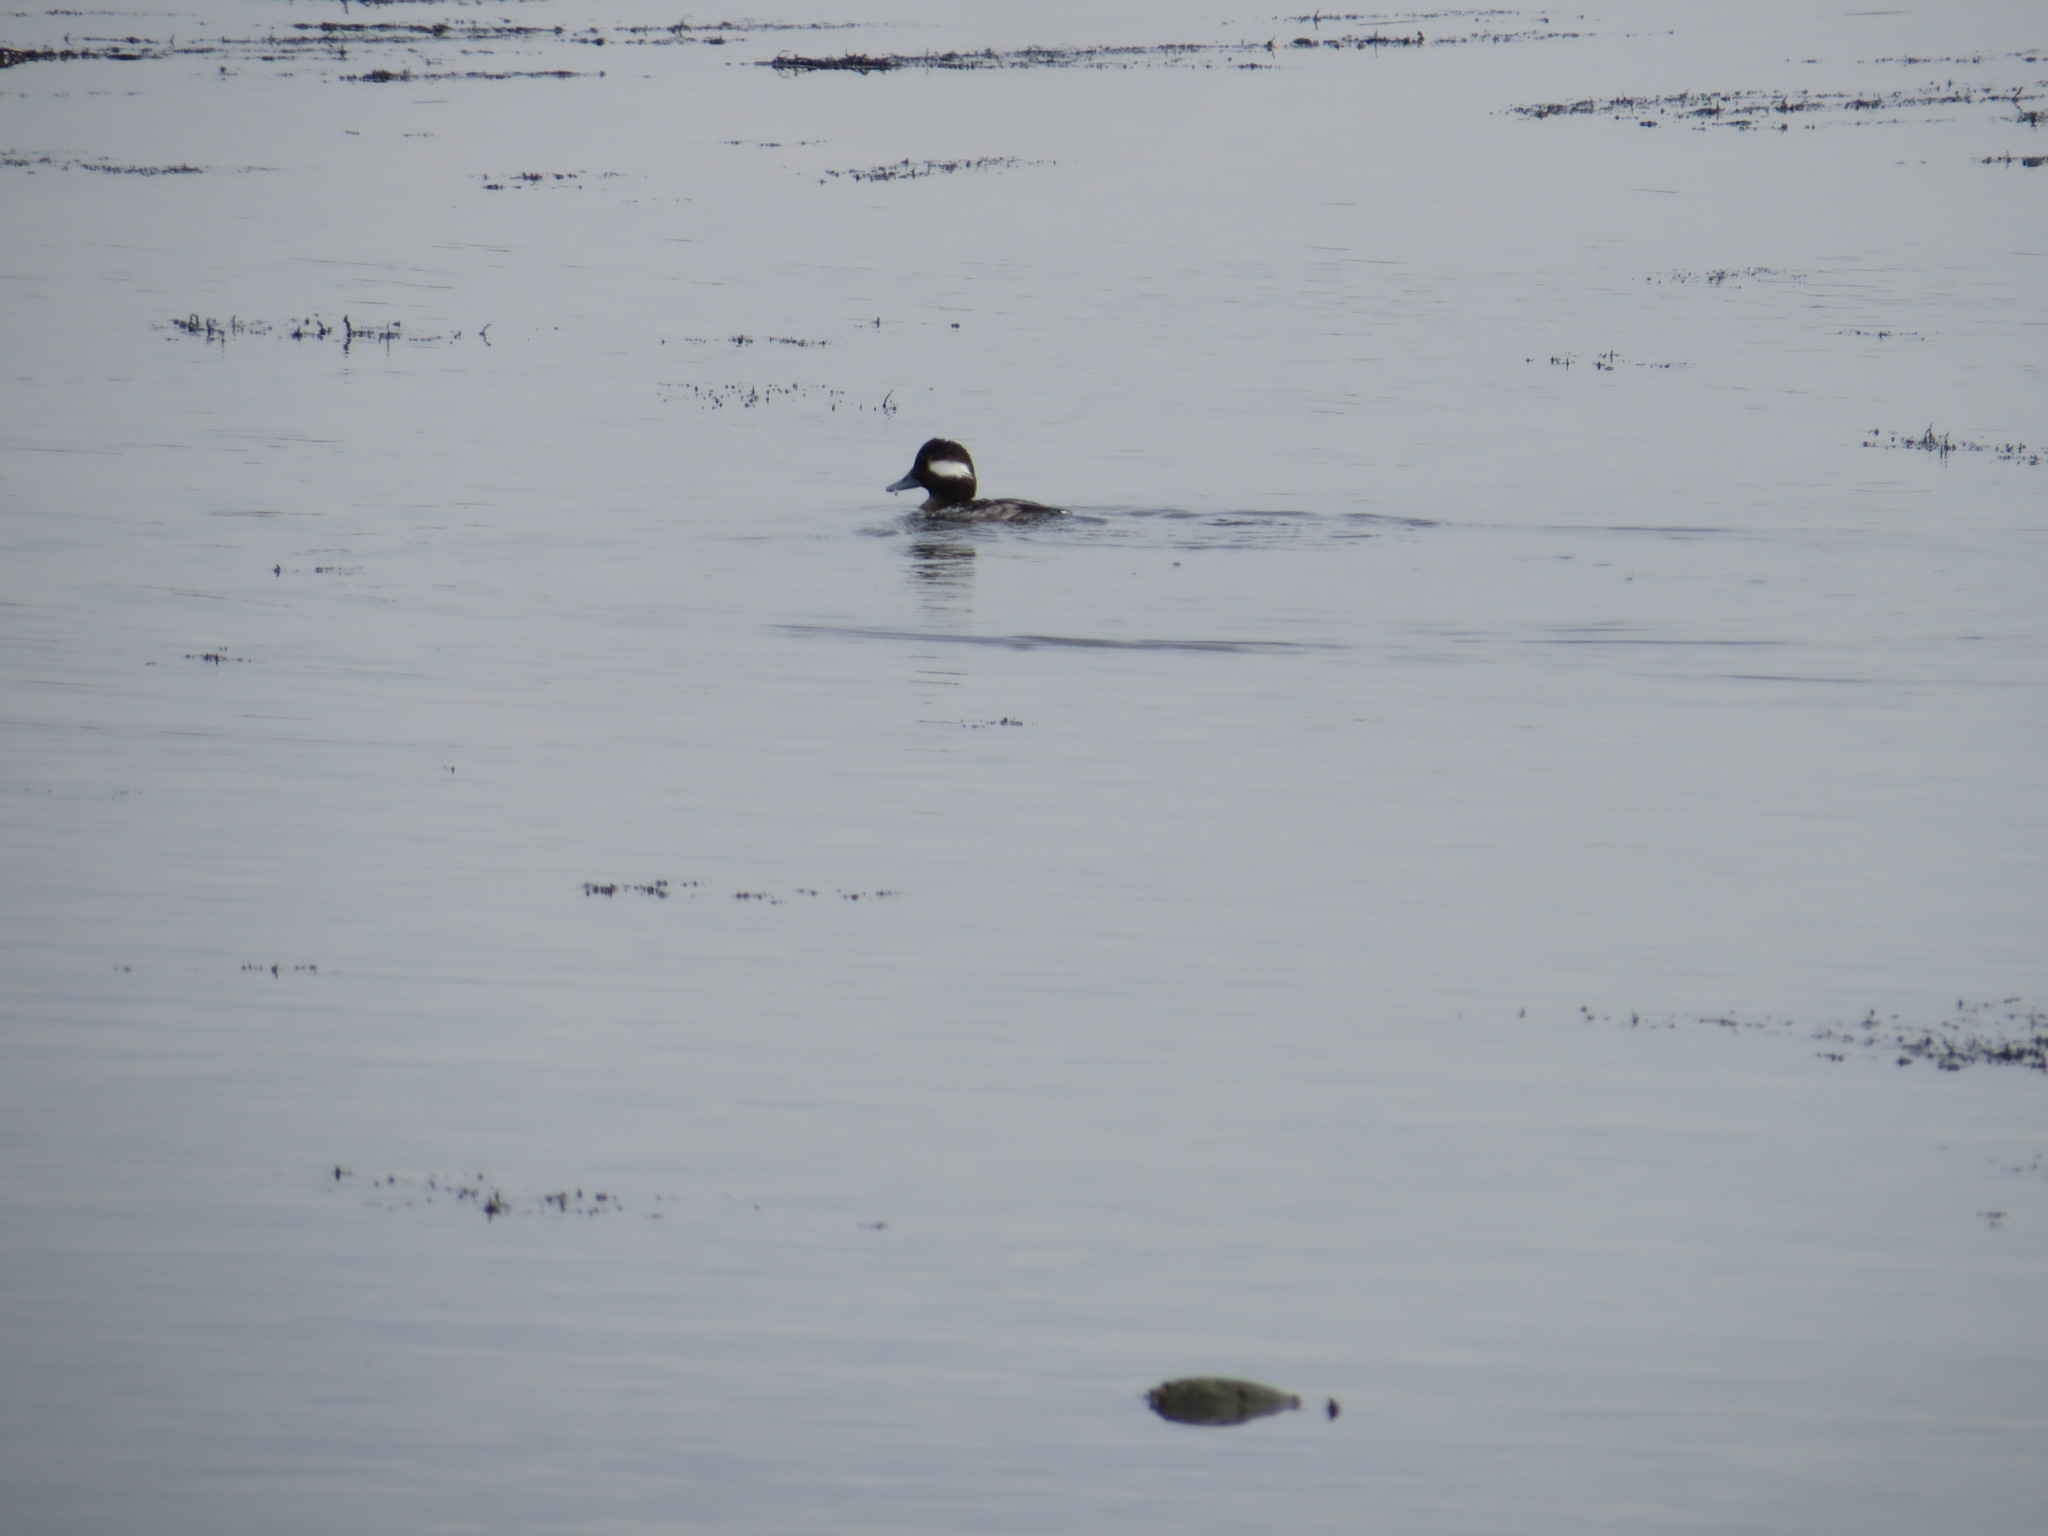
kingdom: Animalia
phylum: Chordata
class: Aves
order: Anseriformes
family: Anatidae
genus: Bucephala
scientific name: Bucephala albeola
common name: Bufflehead
